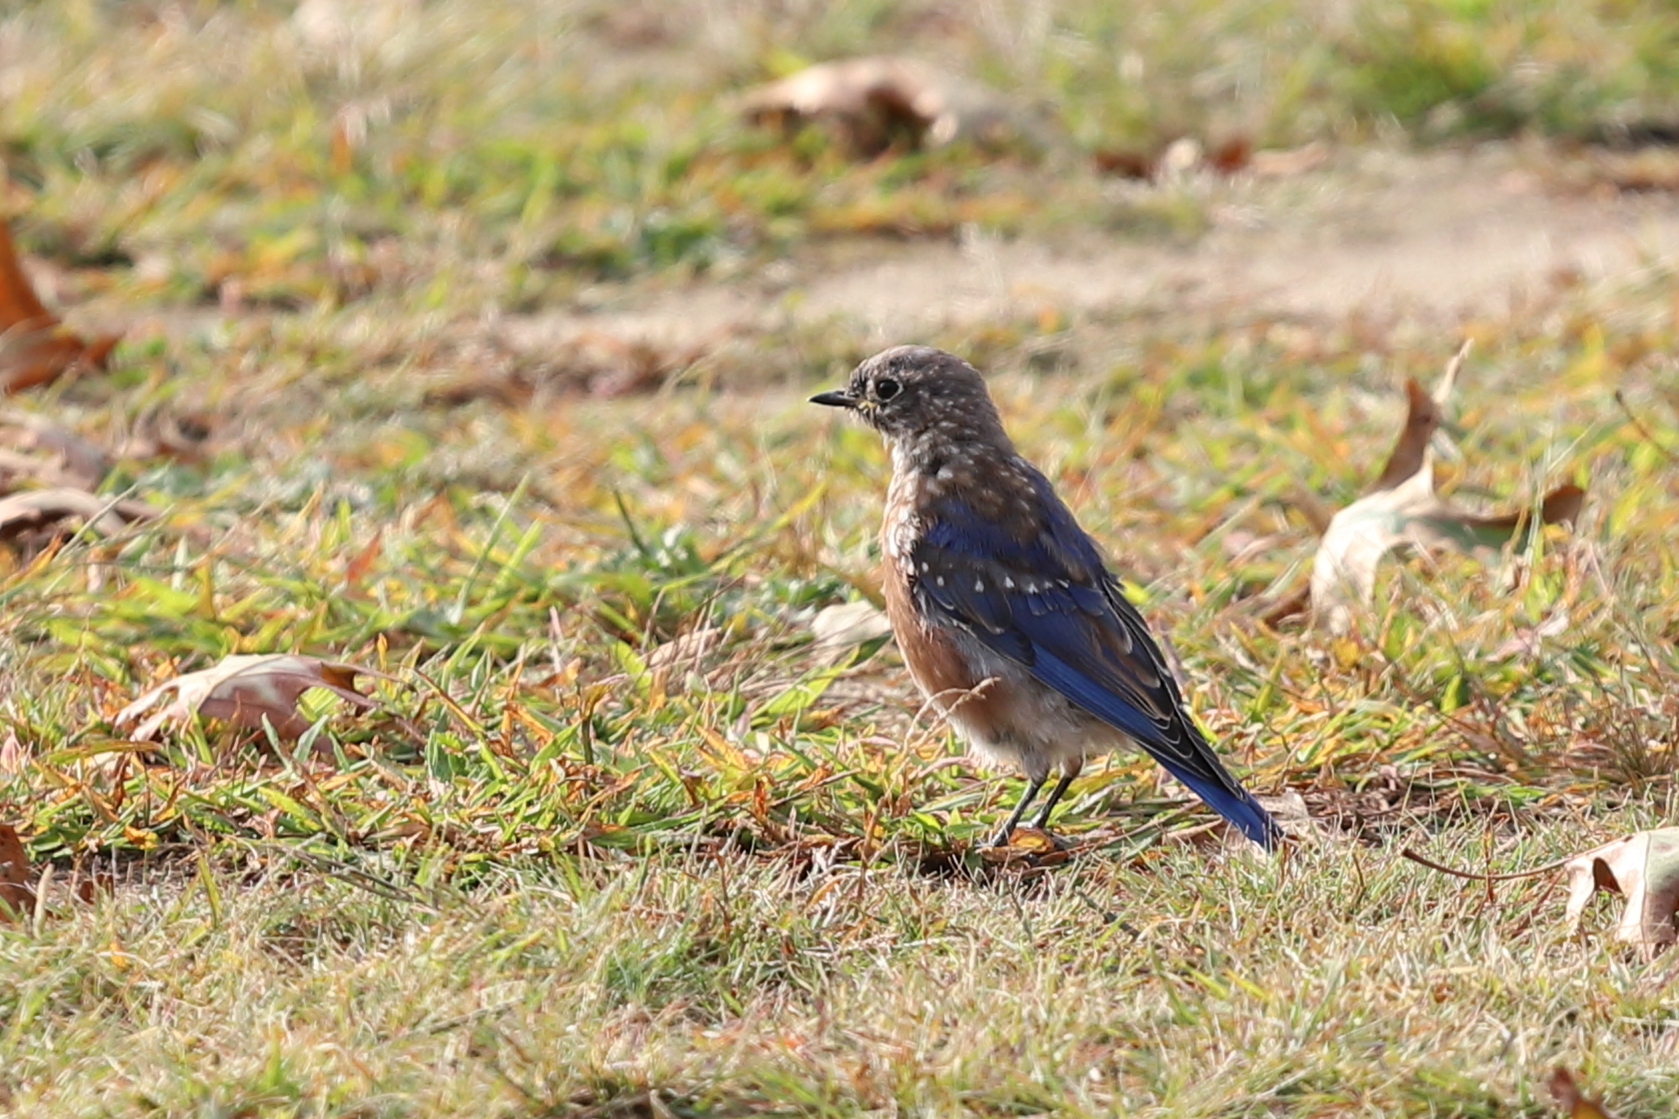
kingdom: Animalia
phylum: Chordata
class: Aves
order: Passeriformes
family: Turdidae
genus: Sialia
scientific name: Sialia sialis
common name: Eastern bluebird
